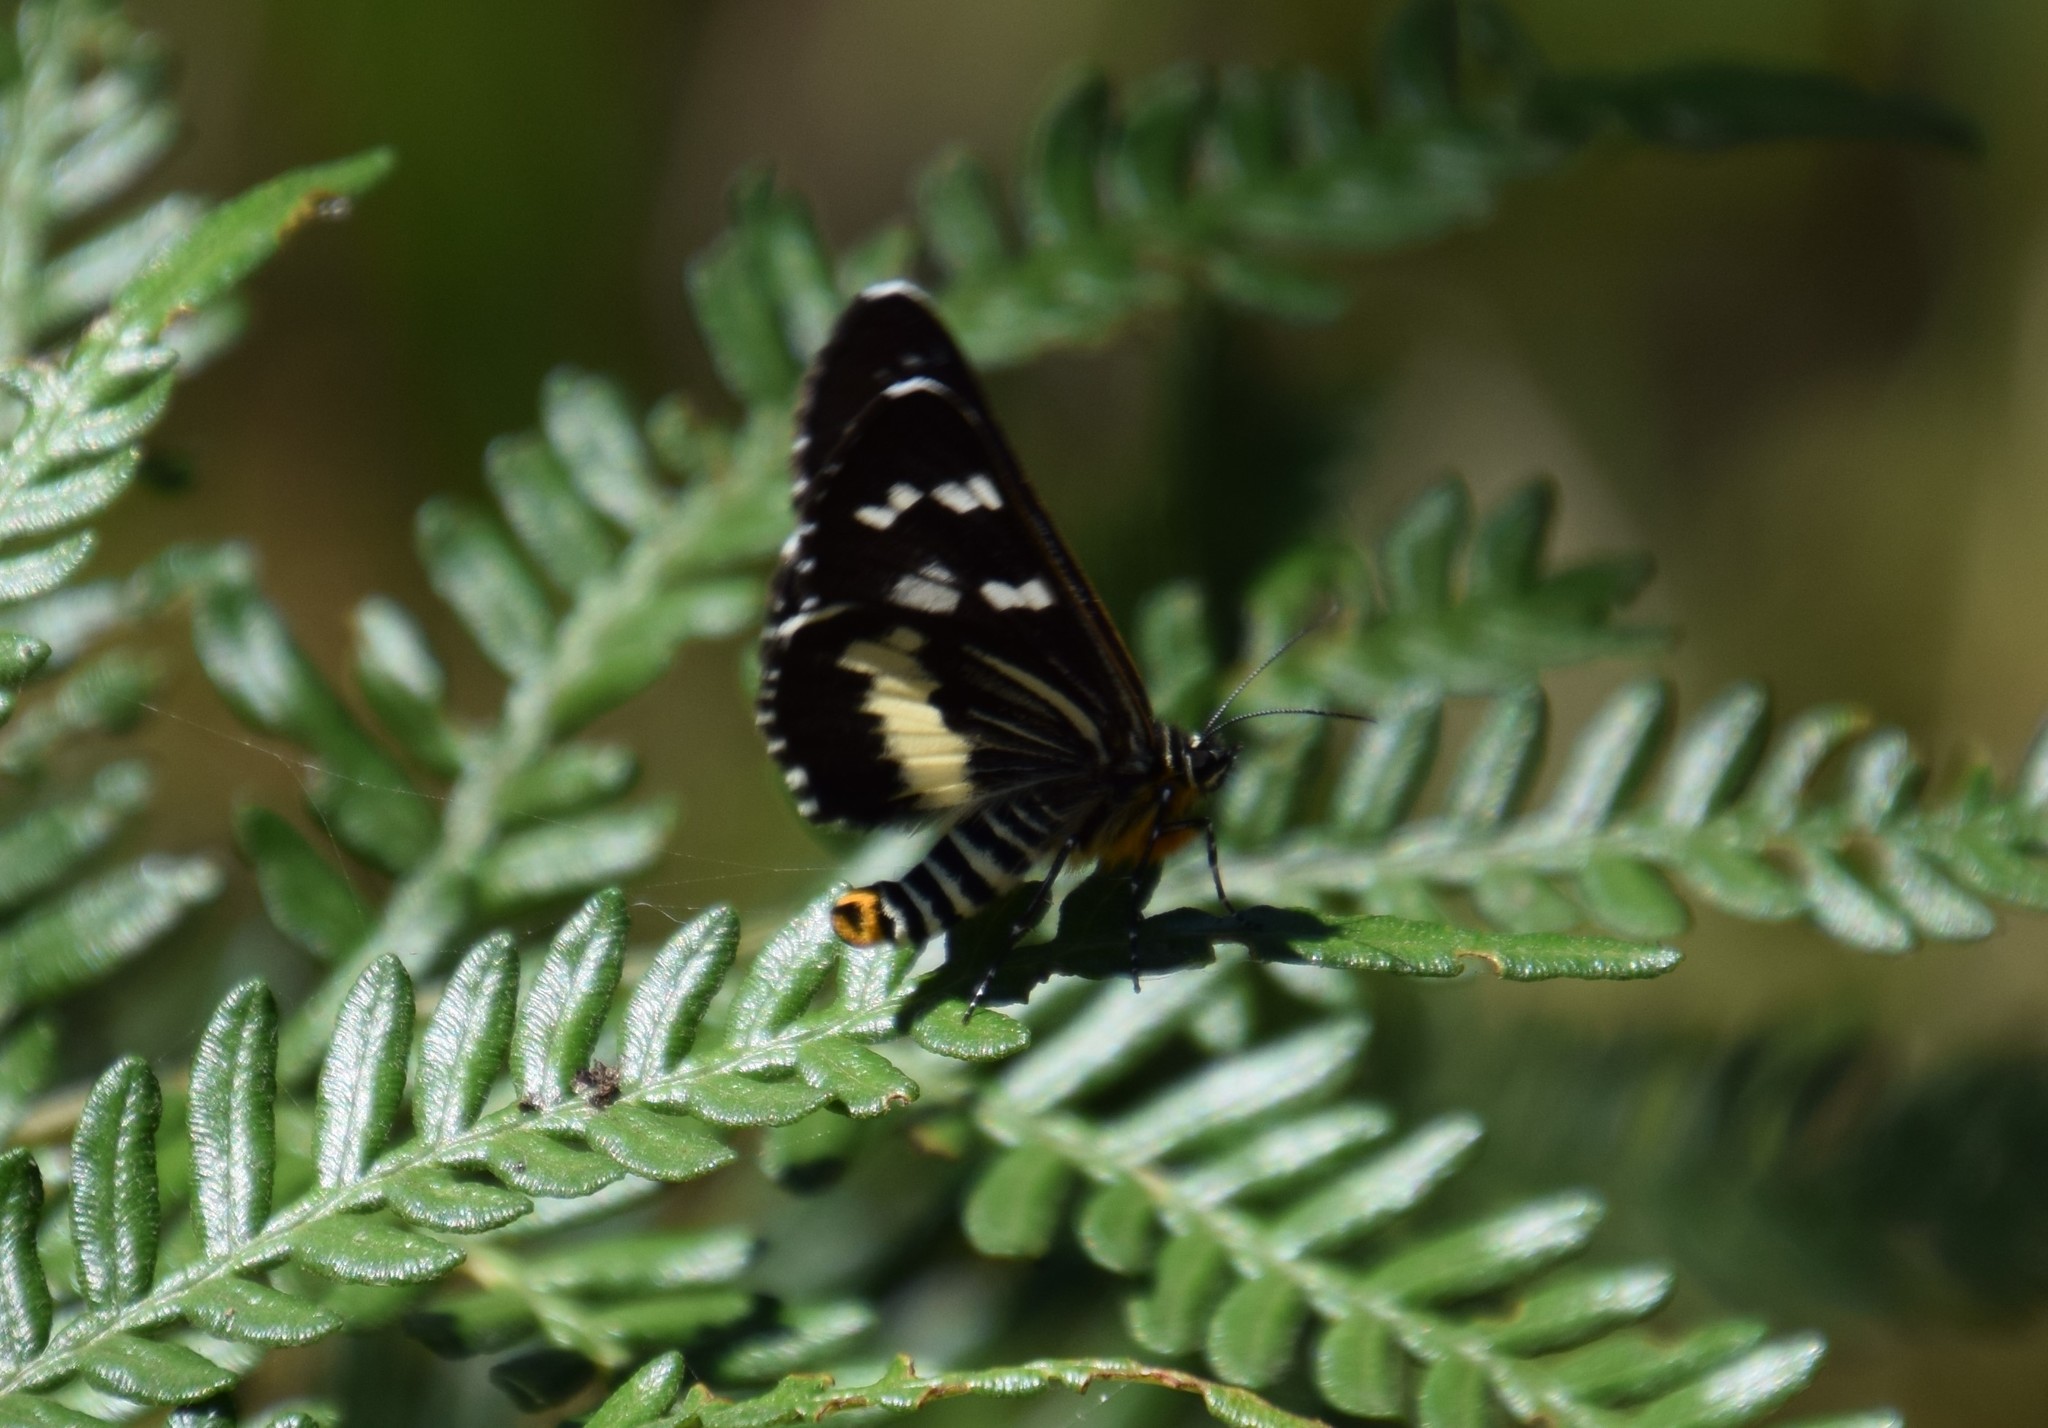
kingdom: Animalia
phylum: Arthropoda
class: Insecta
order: Lepidoptera
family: Noctuidae
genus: Cruria
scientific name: Cruria synopla
